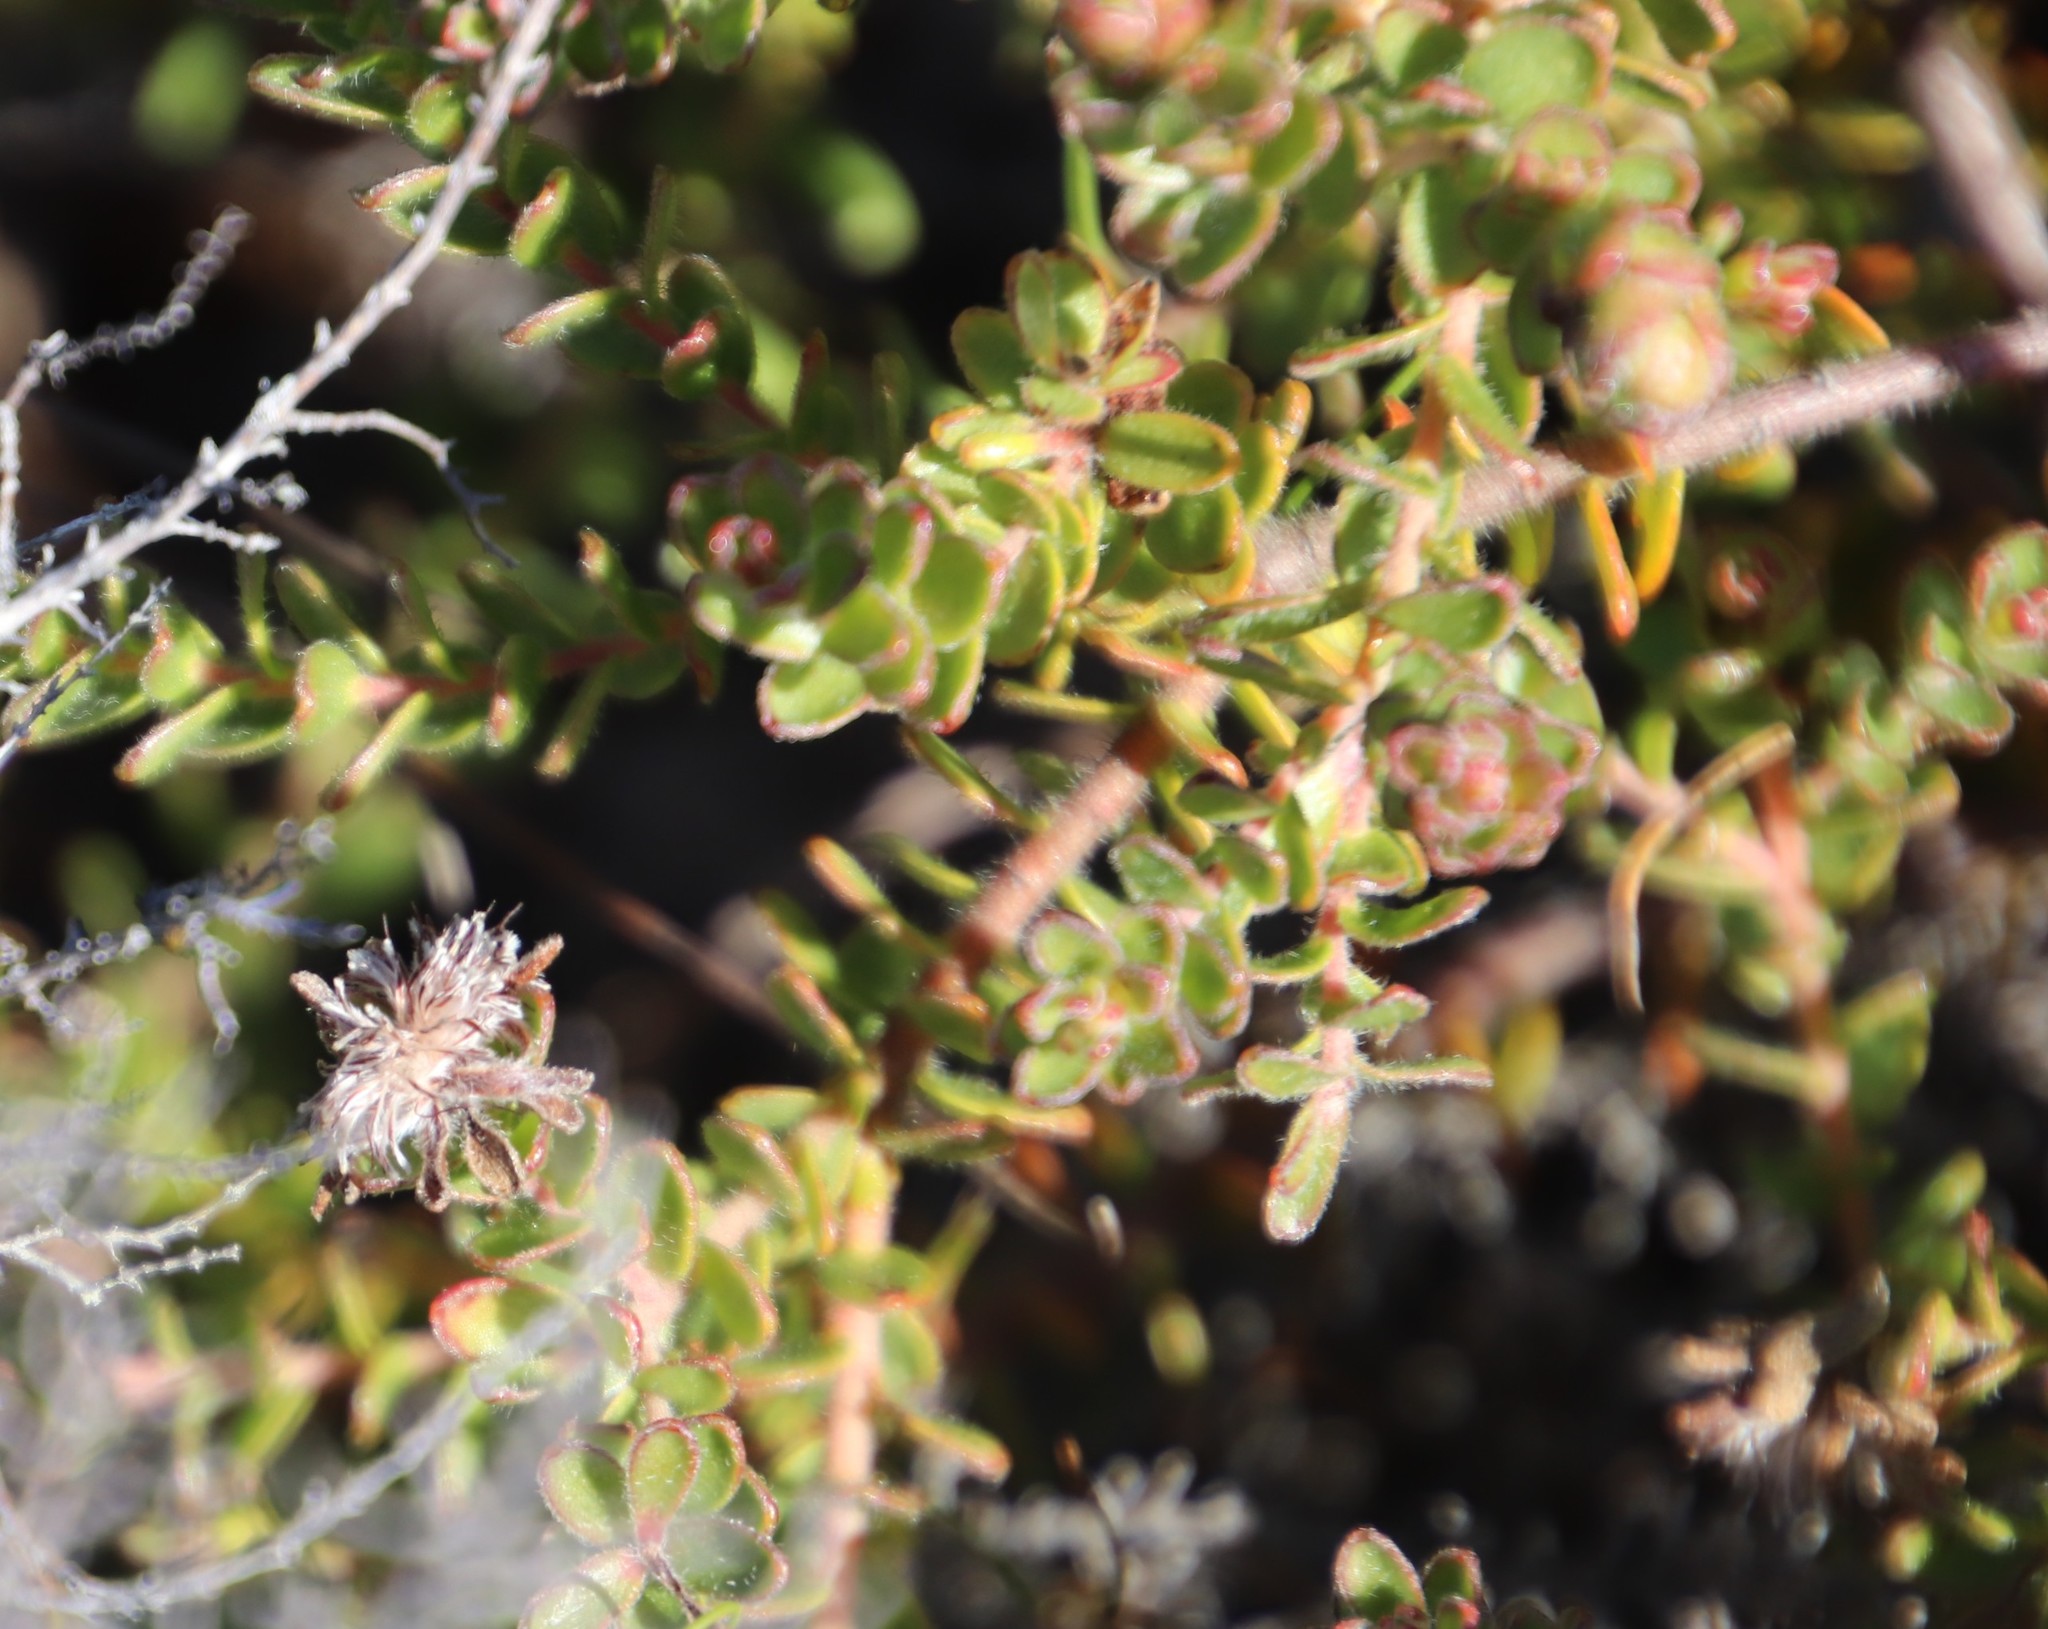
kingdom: Plantae
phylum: Tracheophyta
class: Magnoliopsida
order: Proteales
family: Proteaceae
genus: Diastella
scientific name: Diastella divaricata
